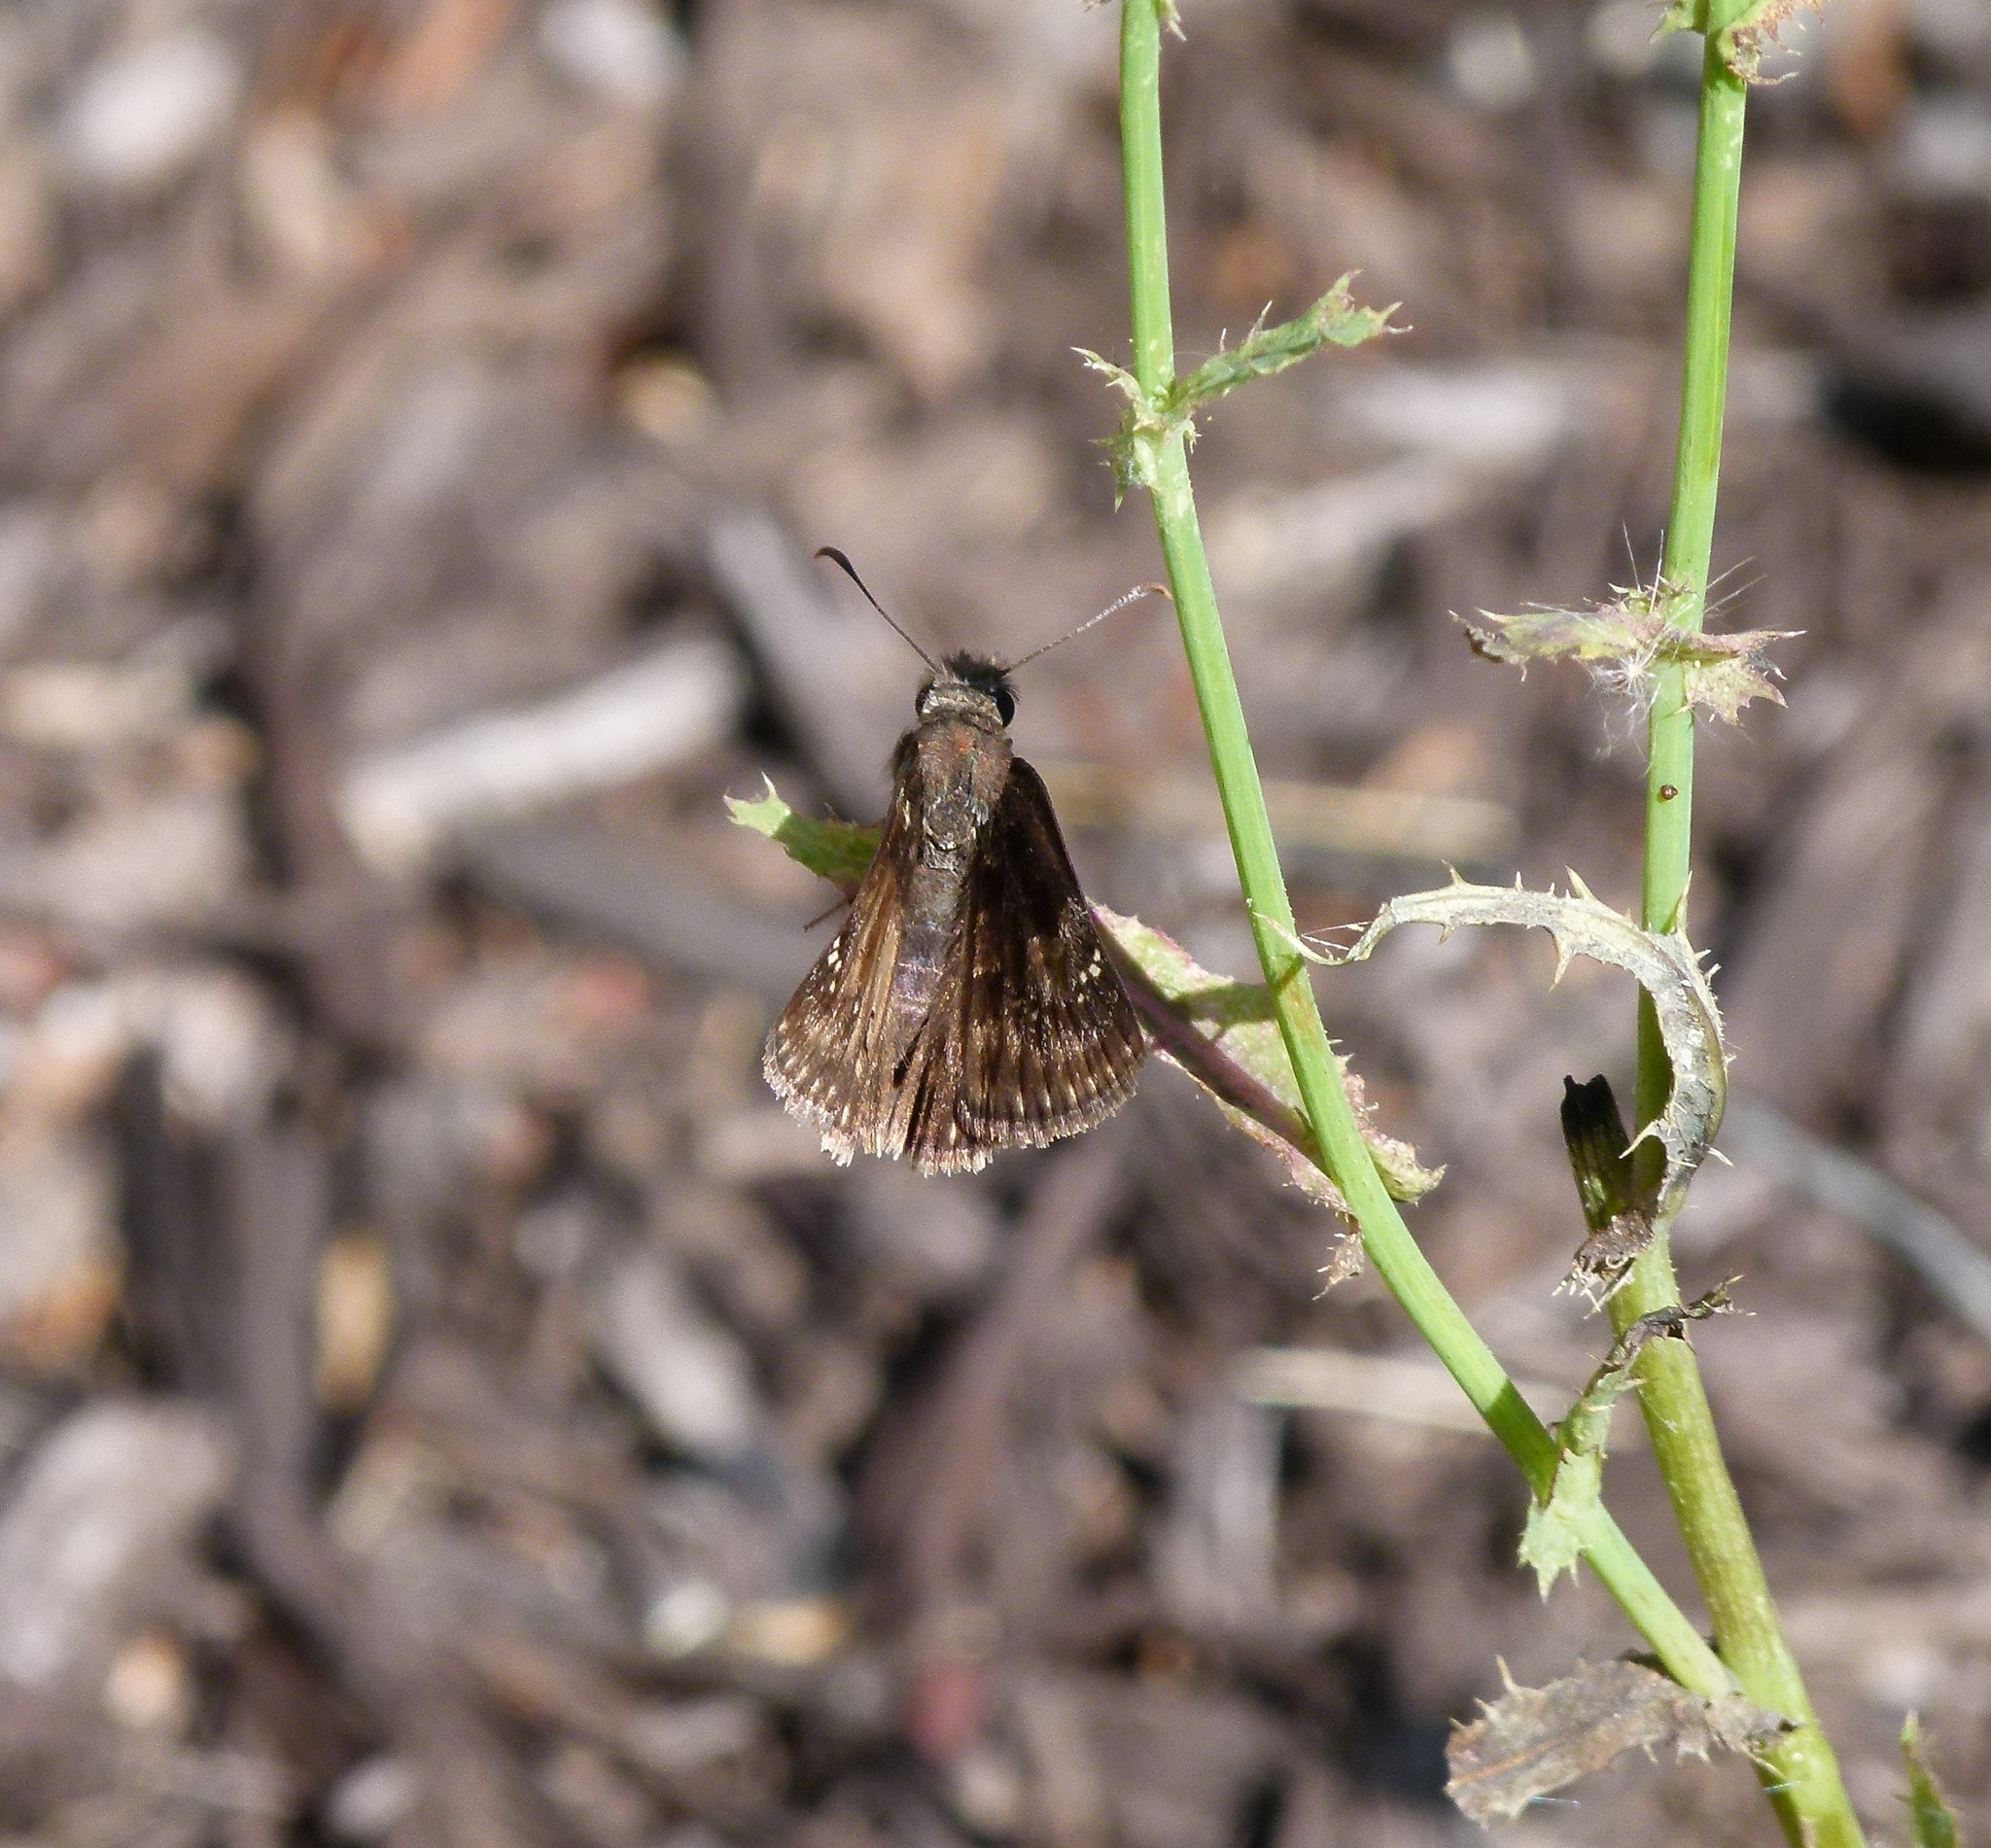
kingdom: Animalia
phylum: Arthropoda
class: Insecta
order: Lepidoptera
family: Hesperiidae
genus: Erynnis
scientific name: Erynnis baptisiae
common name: Wild indigo duskywing
